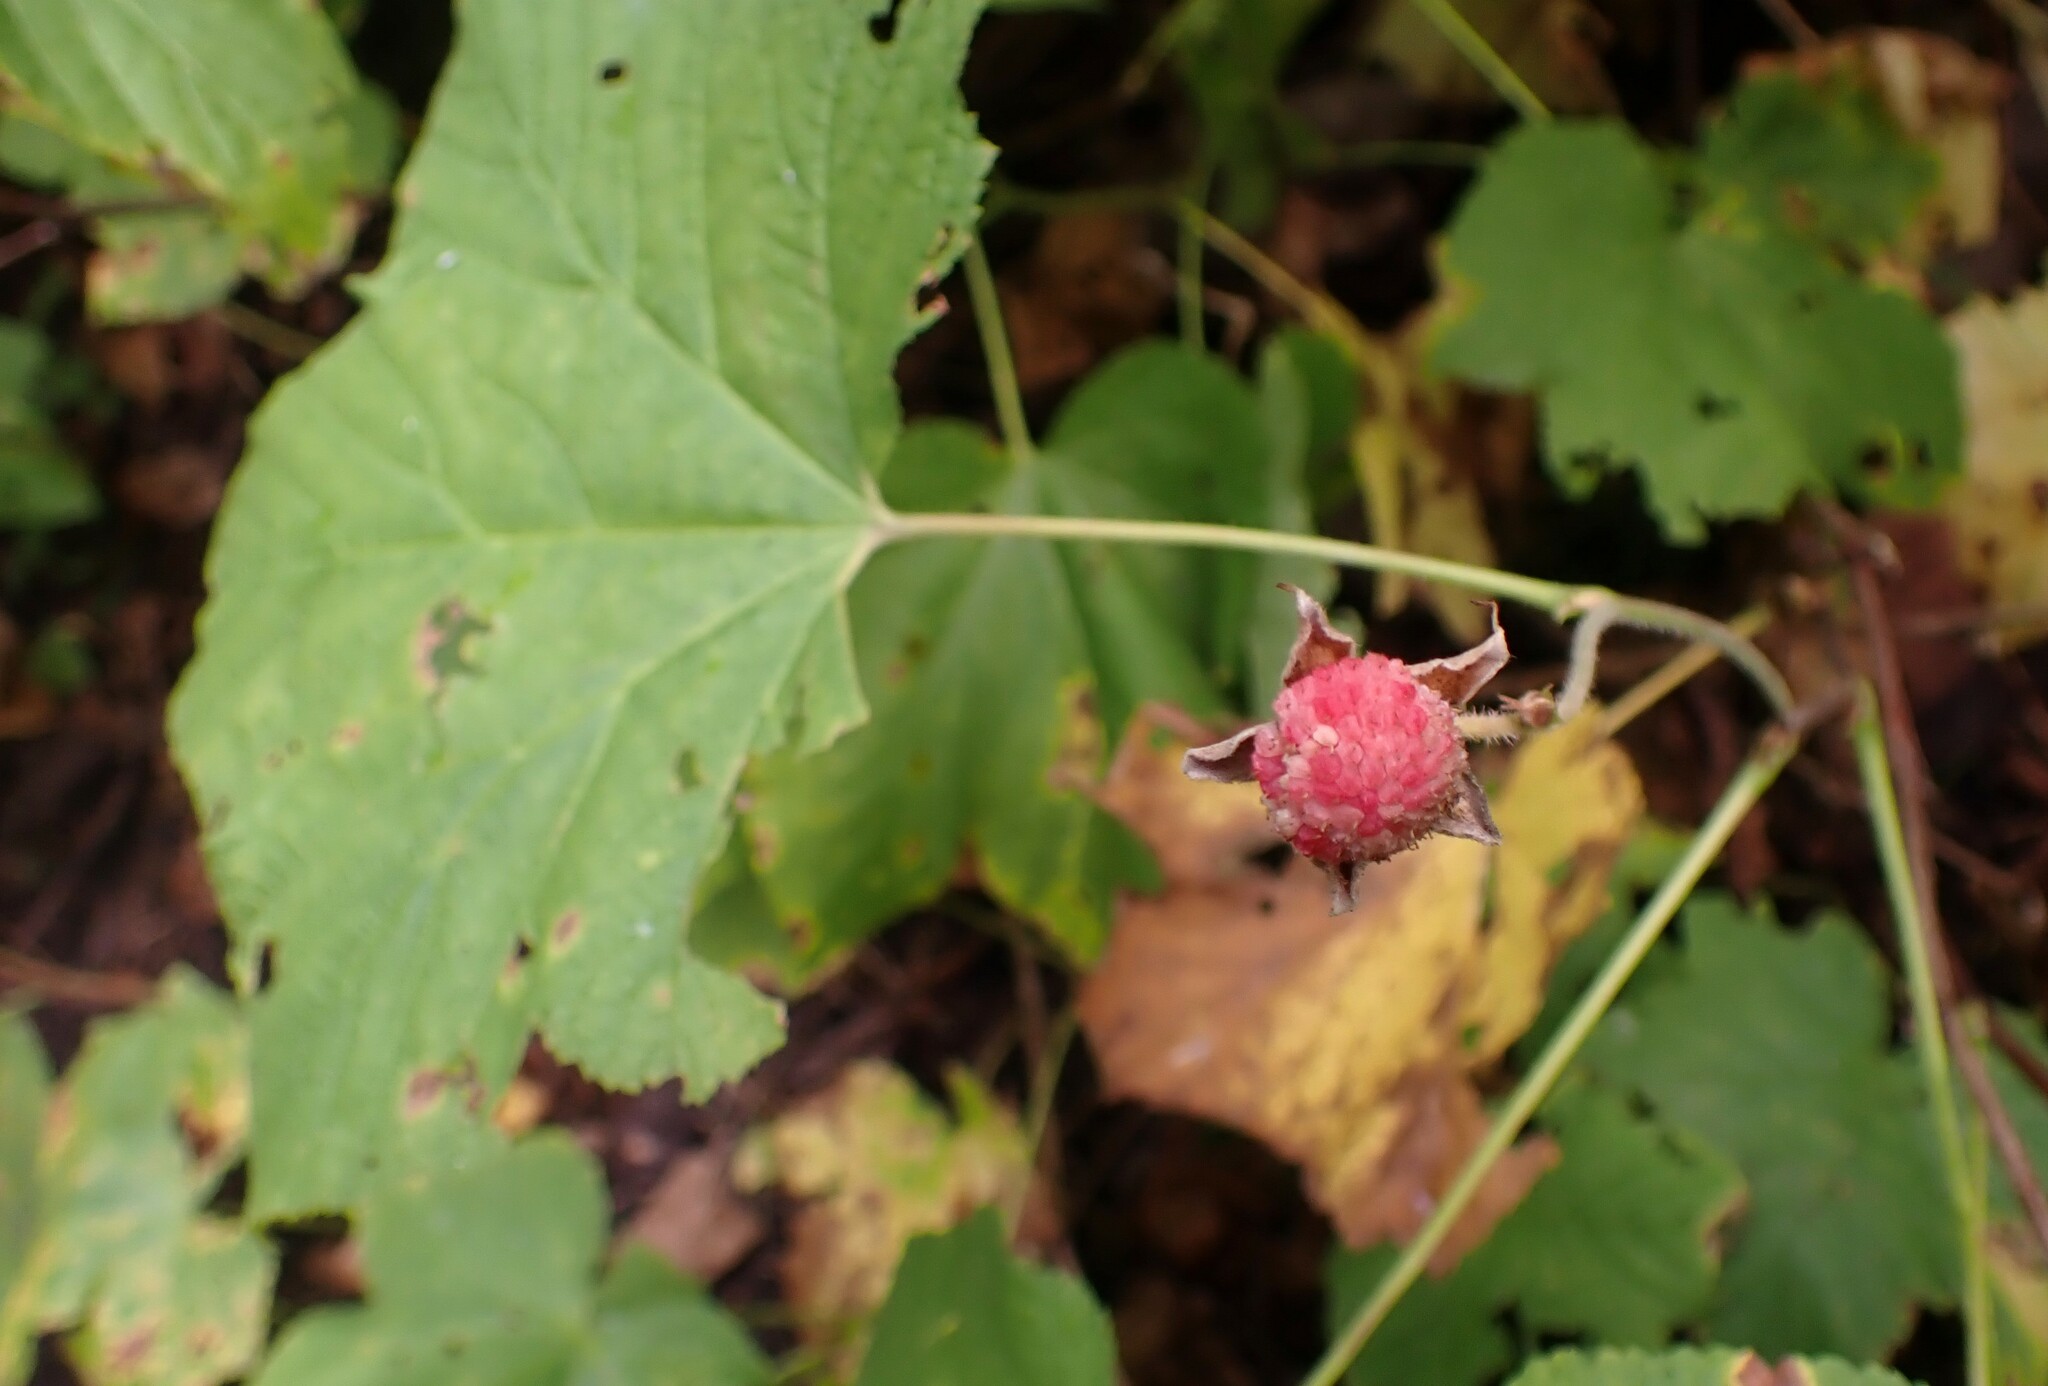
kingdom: Plantae
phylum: Tracheophyta
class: Magnoliopsida
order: Rosales
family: Rosaceae
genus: Rubus
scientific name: Rubus parviflorus
